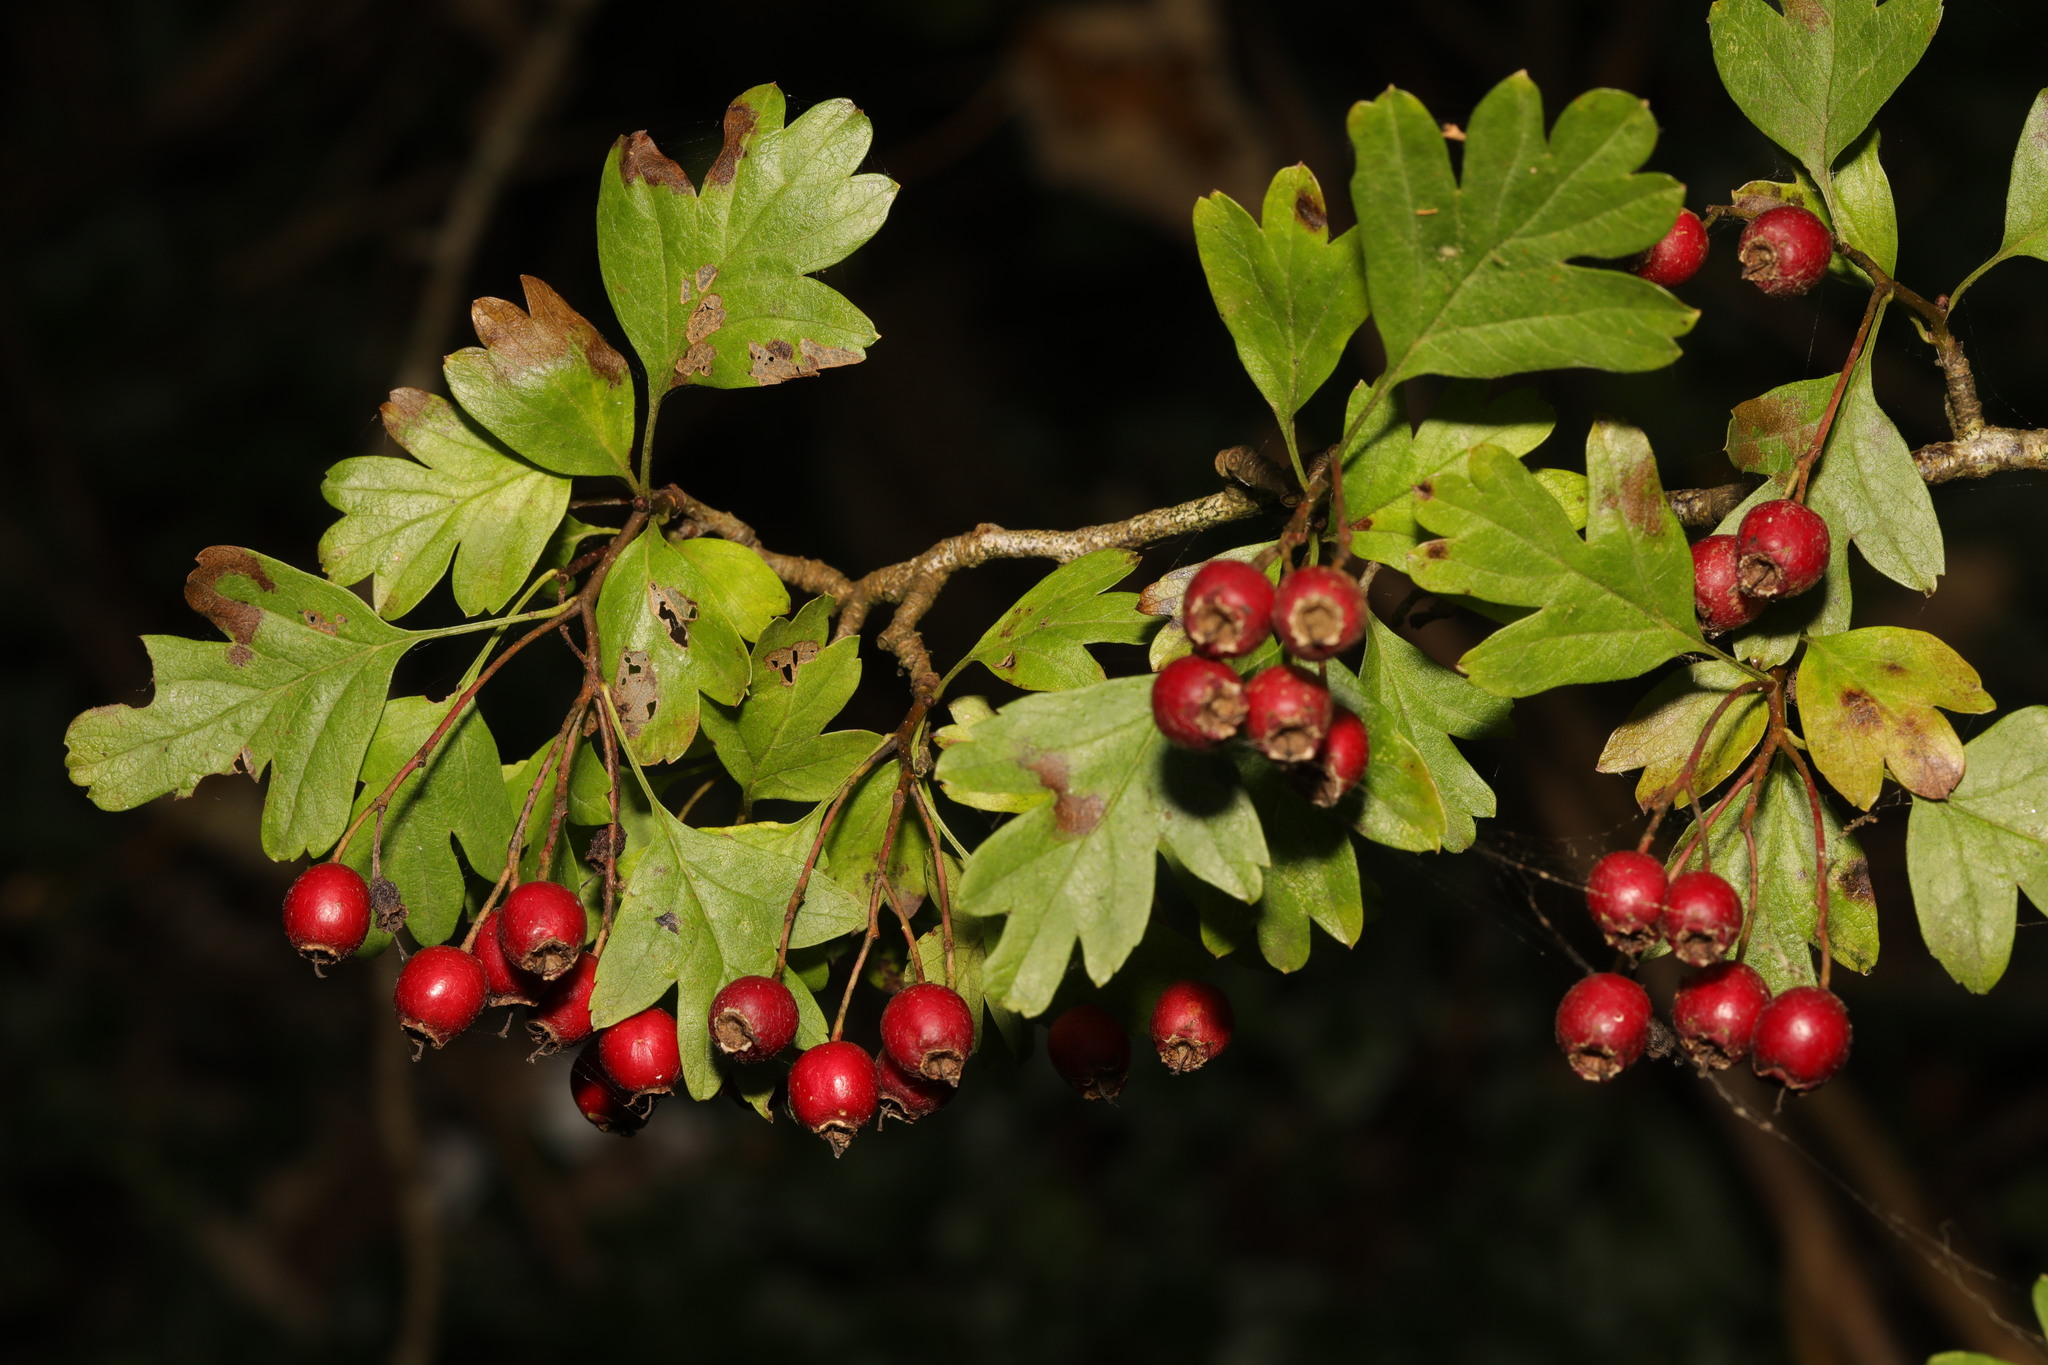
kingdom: Plantae
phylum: Tracheophyta
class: Magnoliopsida
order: Rosales
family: Rosaceae
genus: Crataegus
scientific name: Crataegus monogyna
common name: Hawthorn
